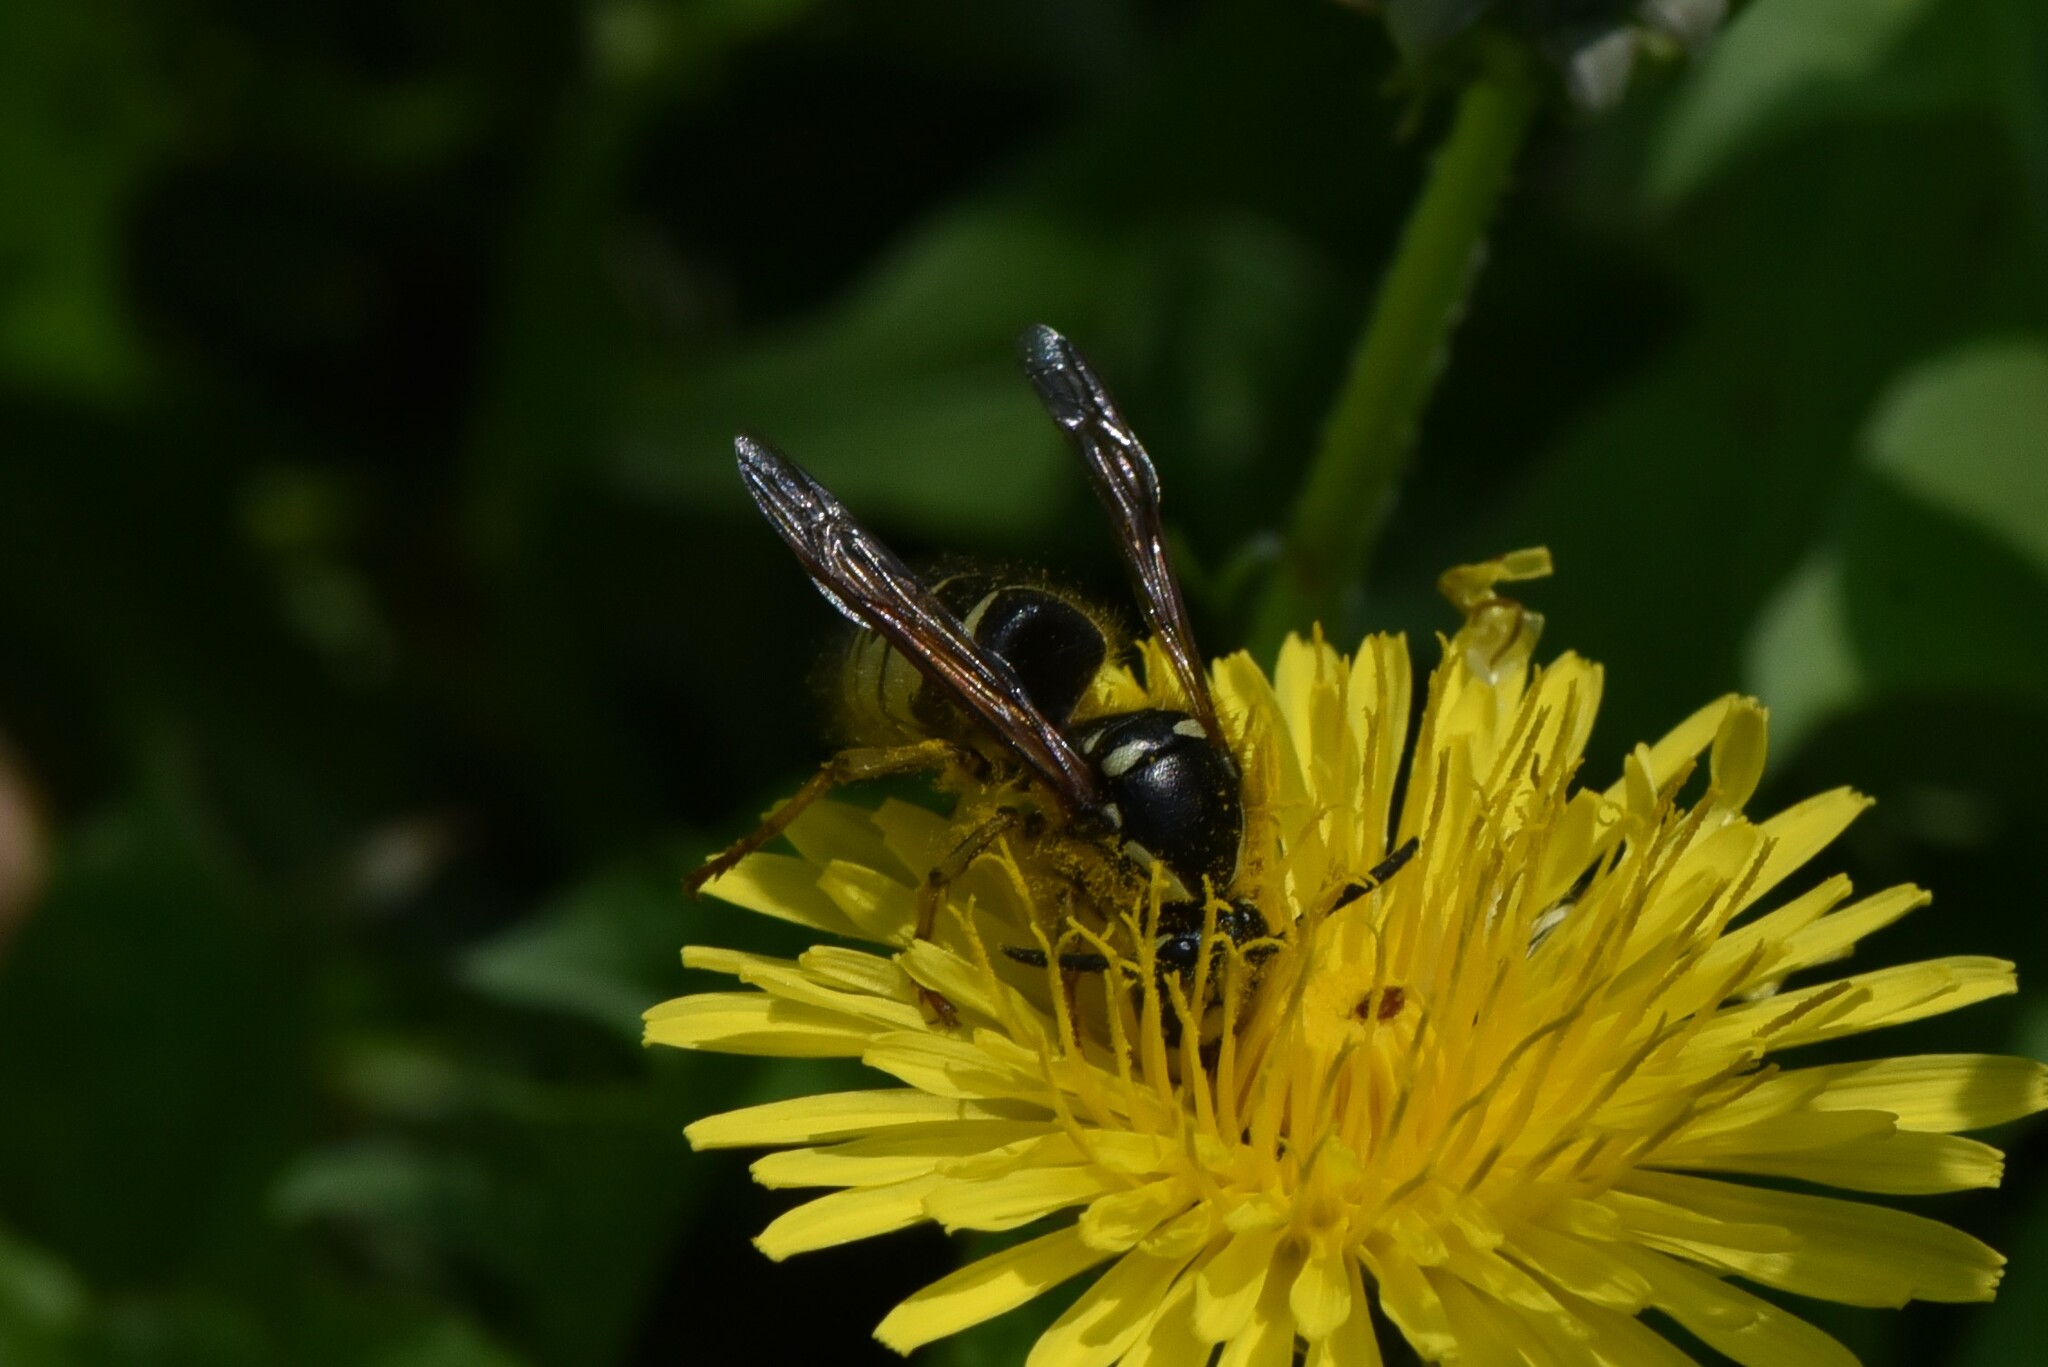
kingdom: Animalia
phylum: Arthropoda
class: Insecta
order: Hymenoptera
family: Vespidae
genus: Dolichovespula
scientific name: Dolichovespula arenaria
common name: Aerial yellowjacket
